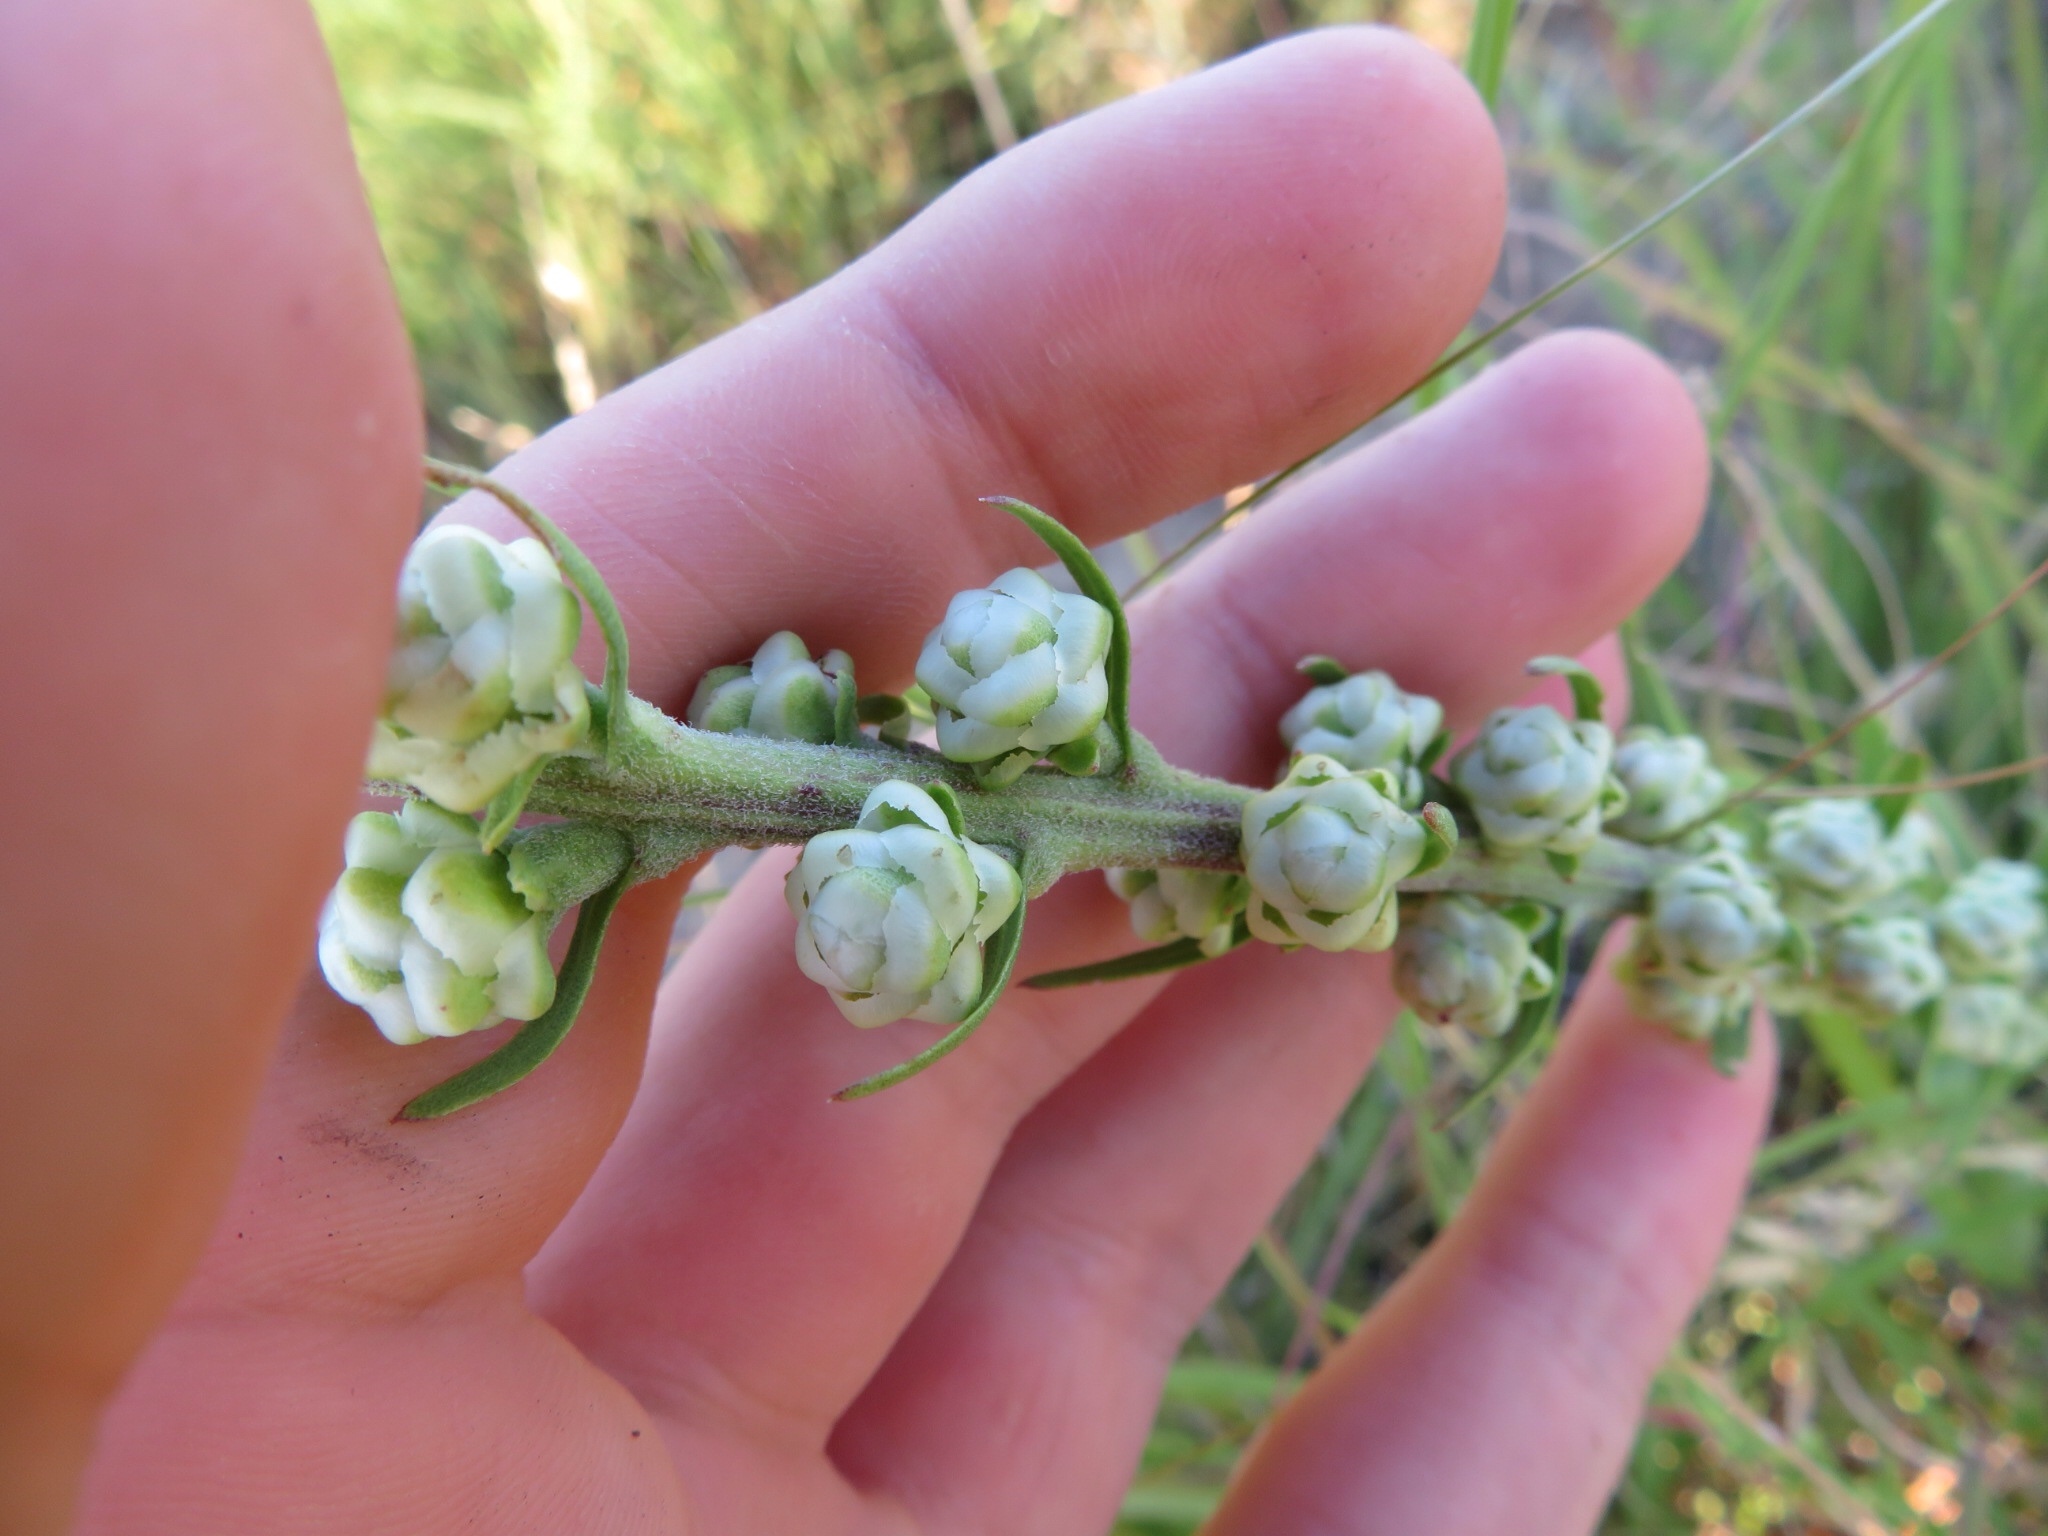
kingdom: Plantae
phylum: Tracheophyta
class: Magnoliopsida
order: Asterales
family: Asteraceae
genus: Liatris
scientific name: Liatris aspera
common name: Lacerate blazing-star
